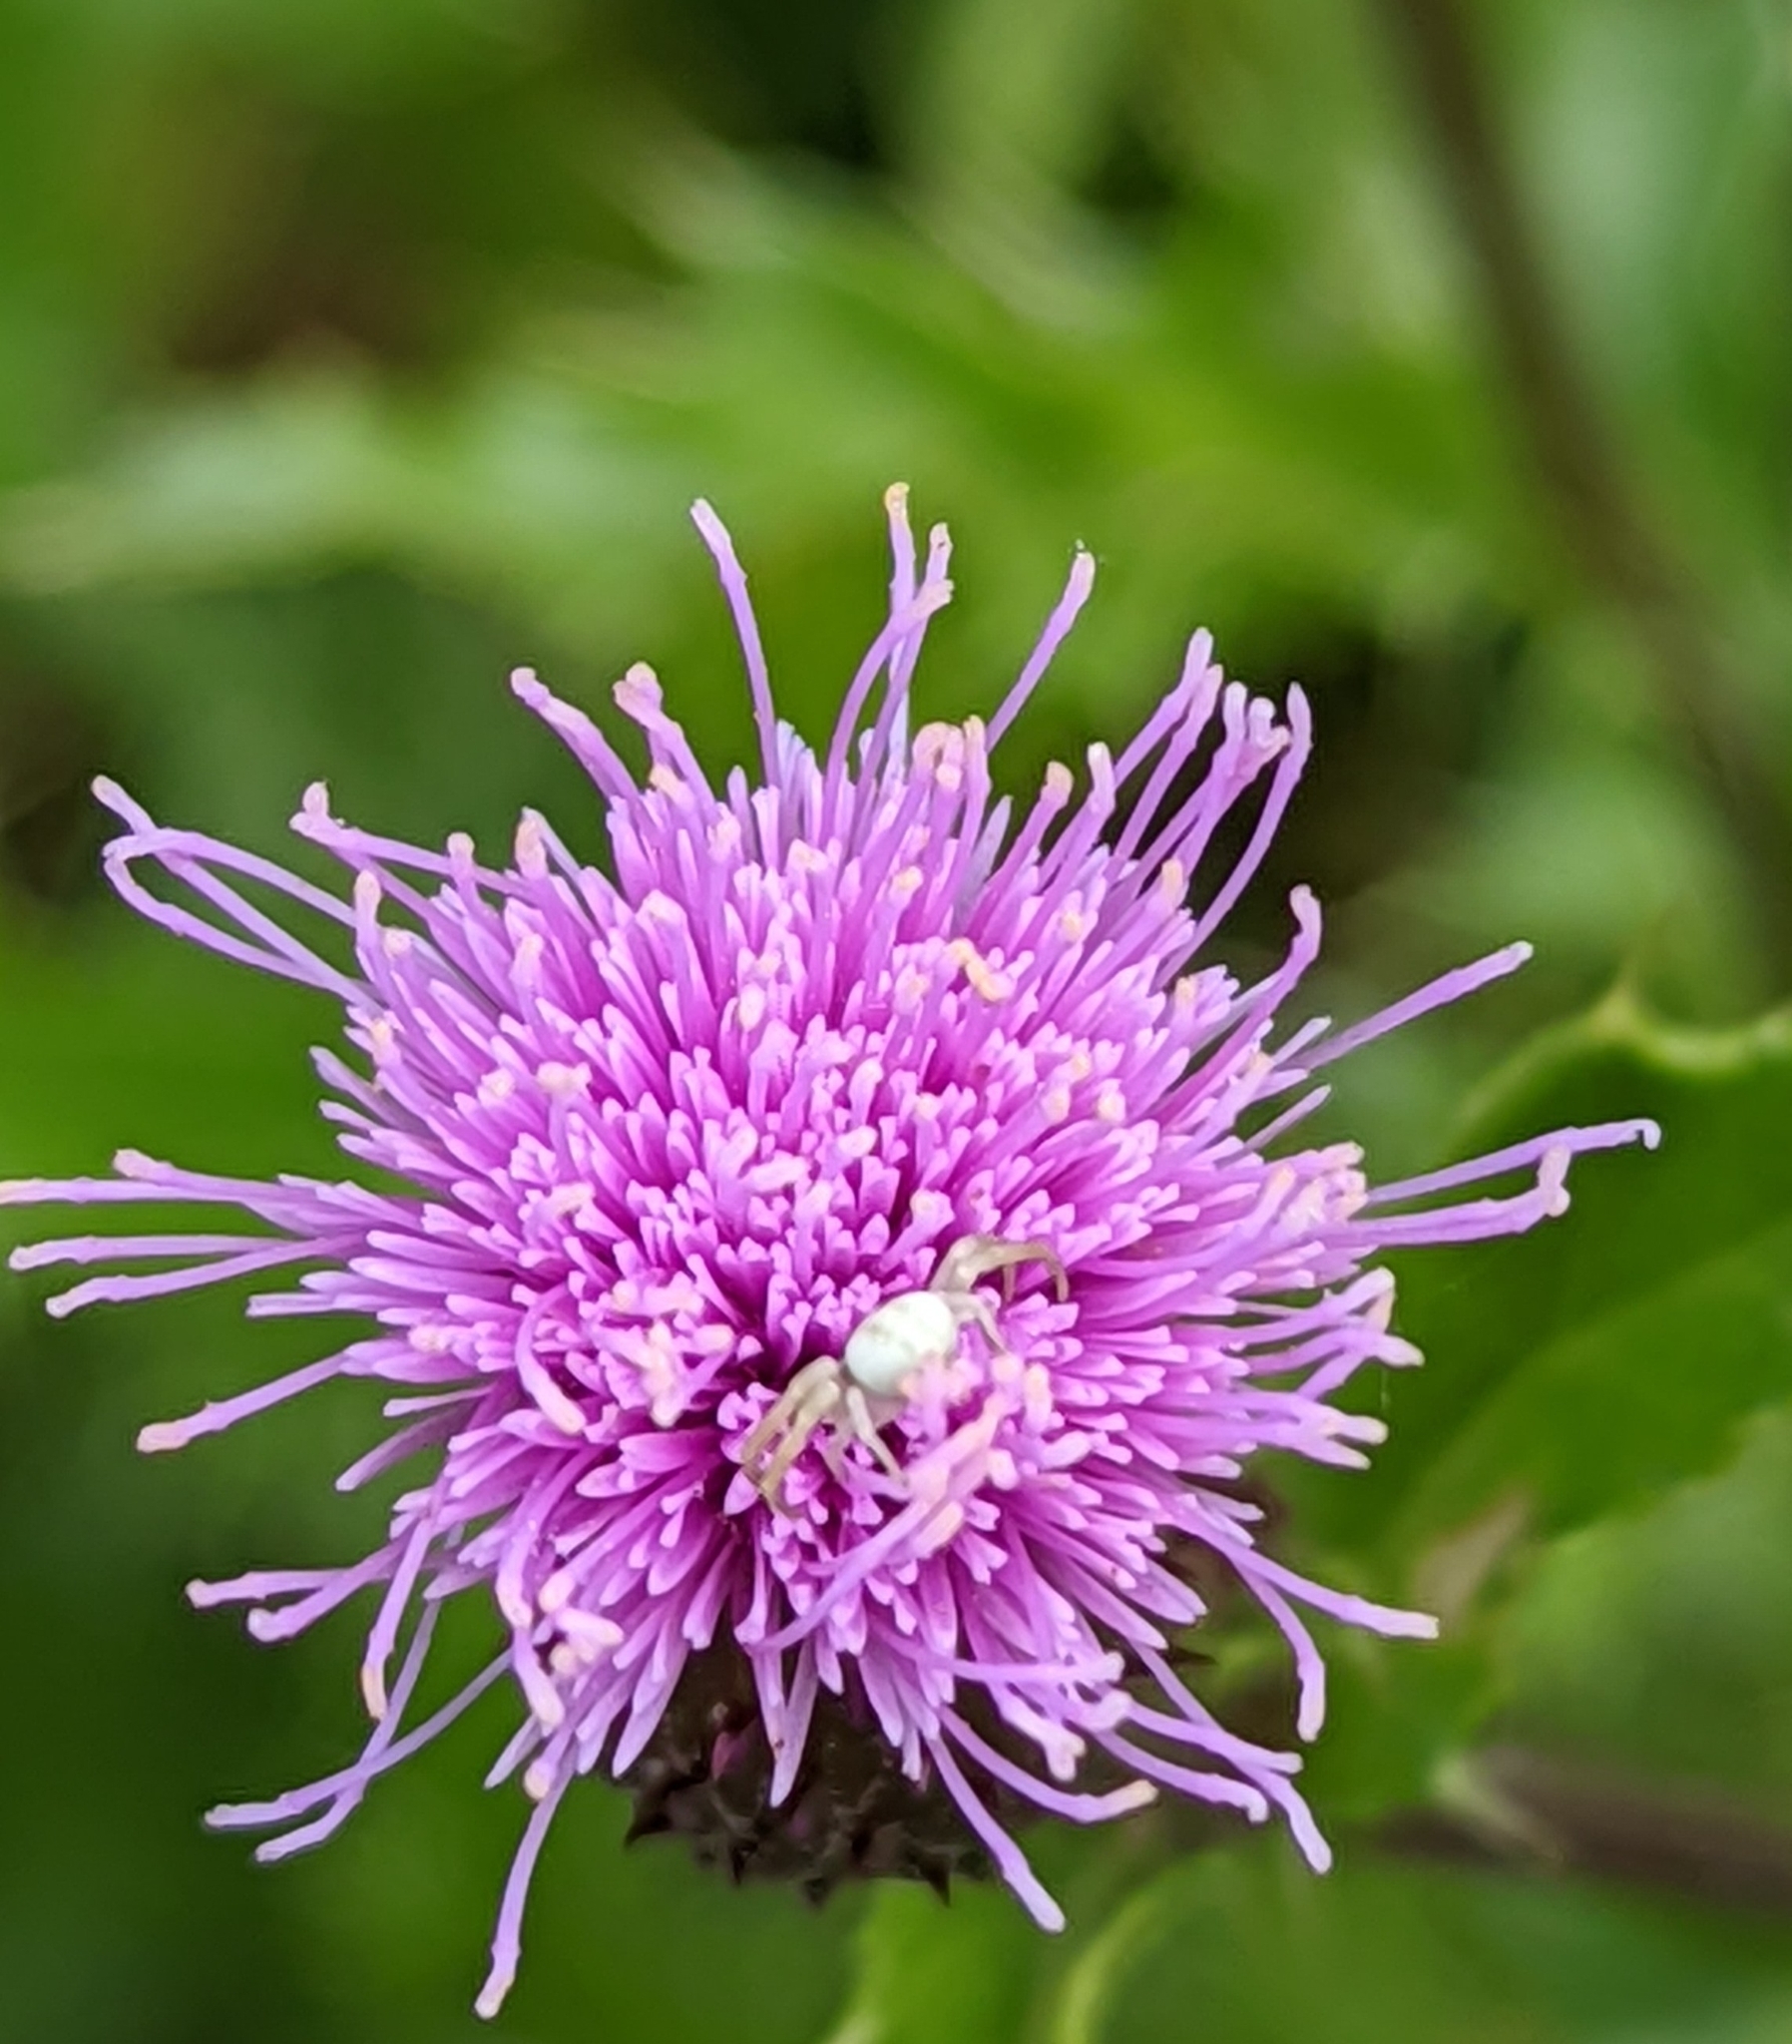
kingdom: Animalia
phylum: Arthropoda
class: Arachnida
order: Araneae
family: Thomisidae
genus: Misumena
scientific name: Misumena vatia
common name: Goldenrod crab spider
